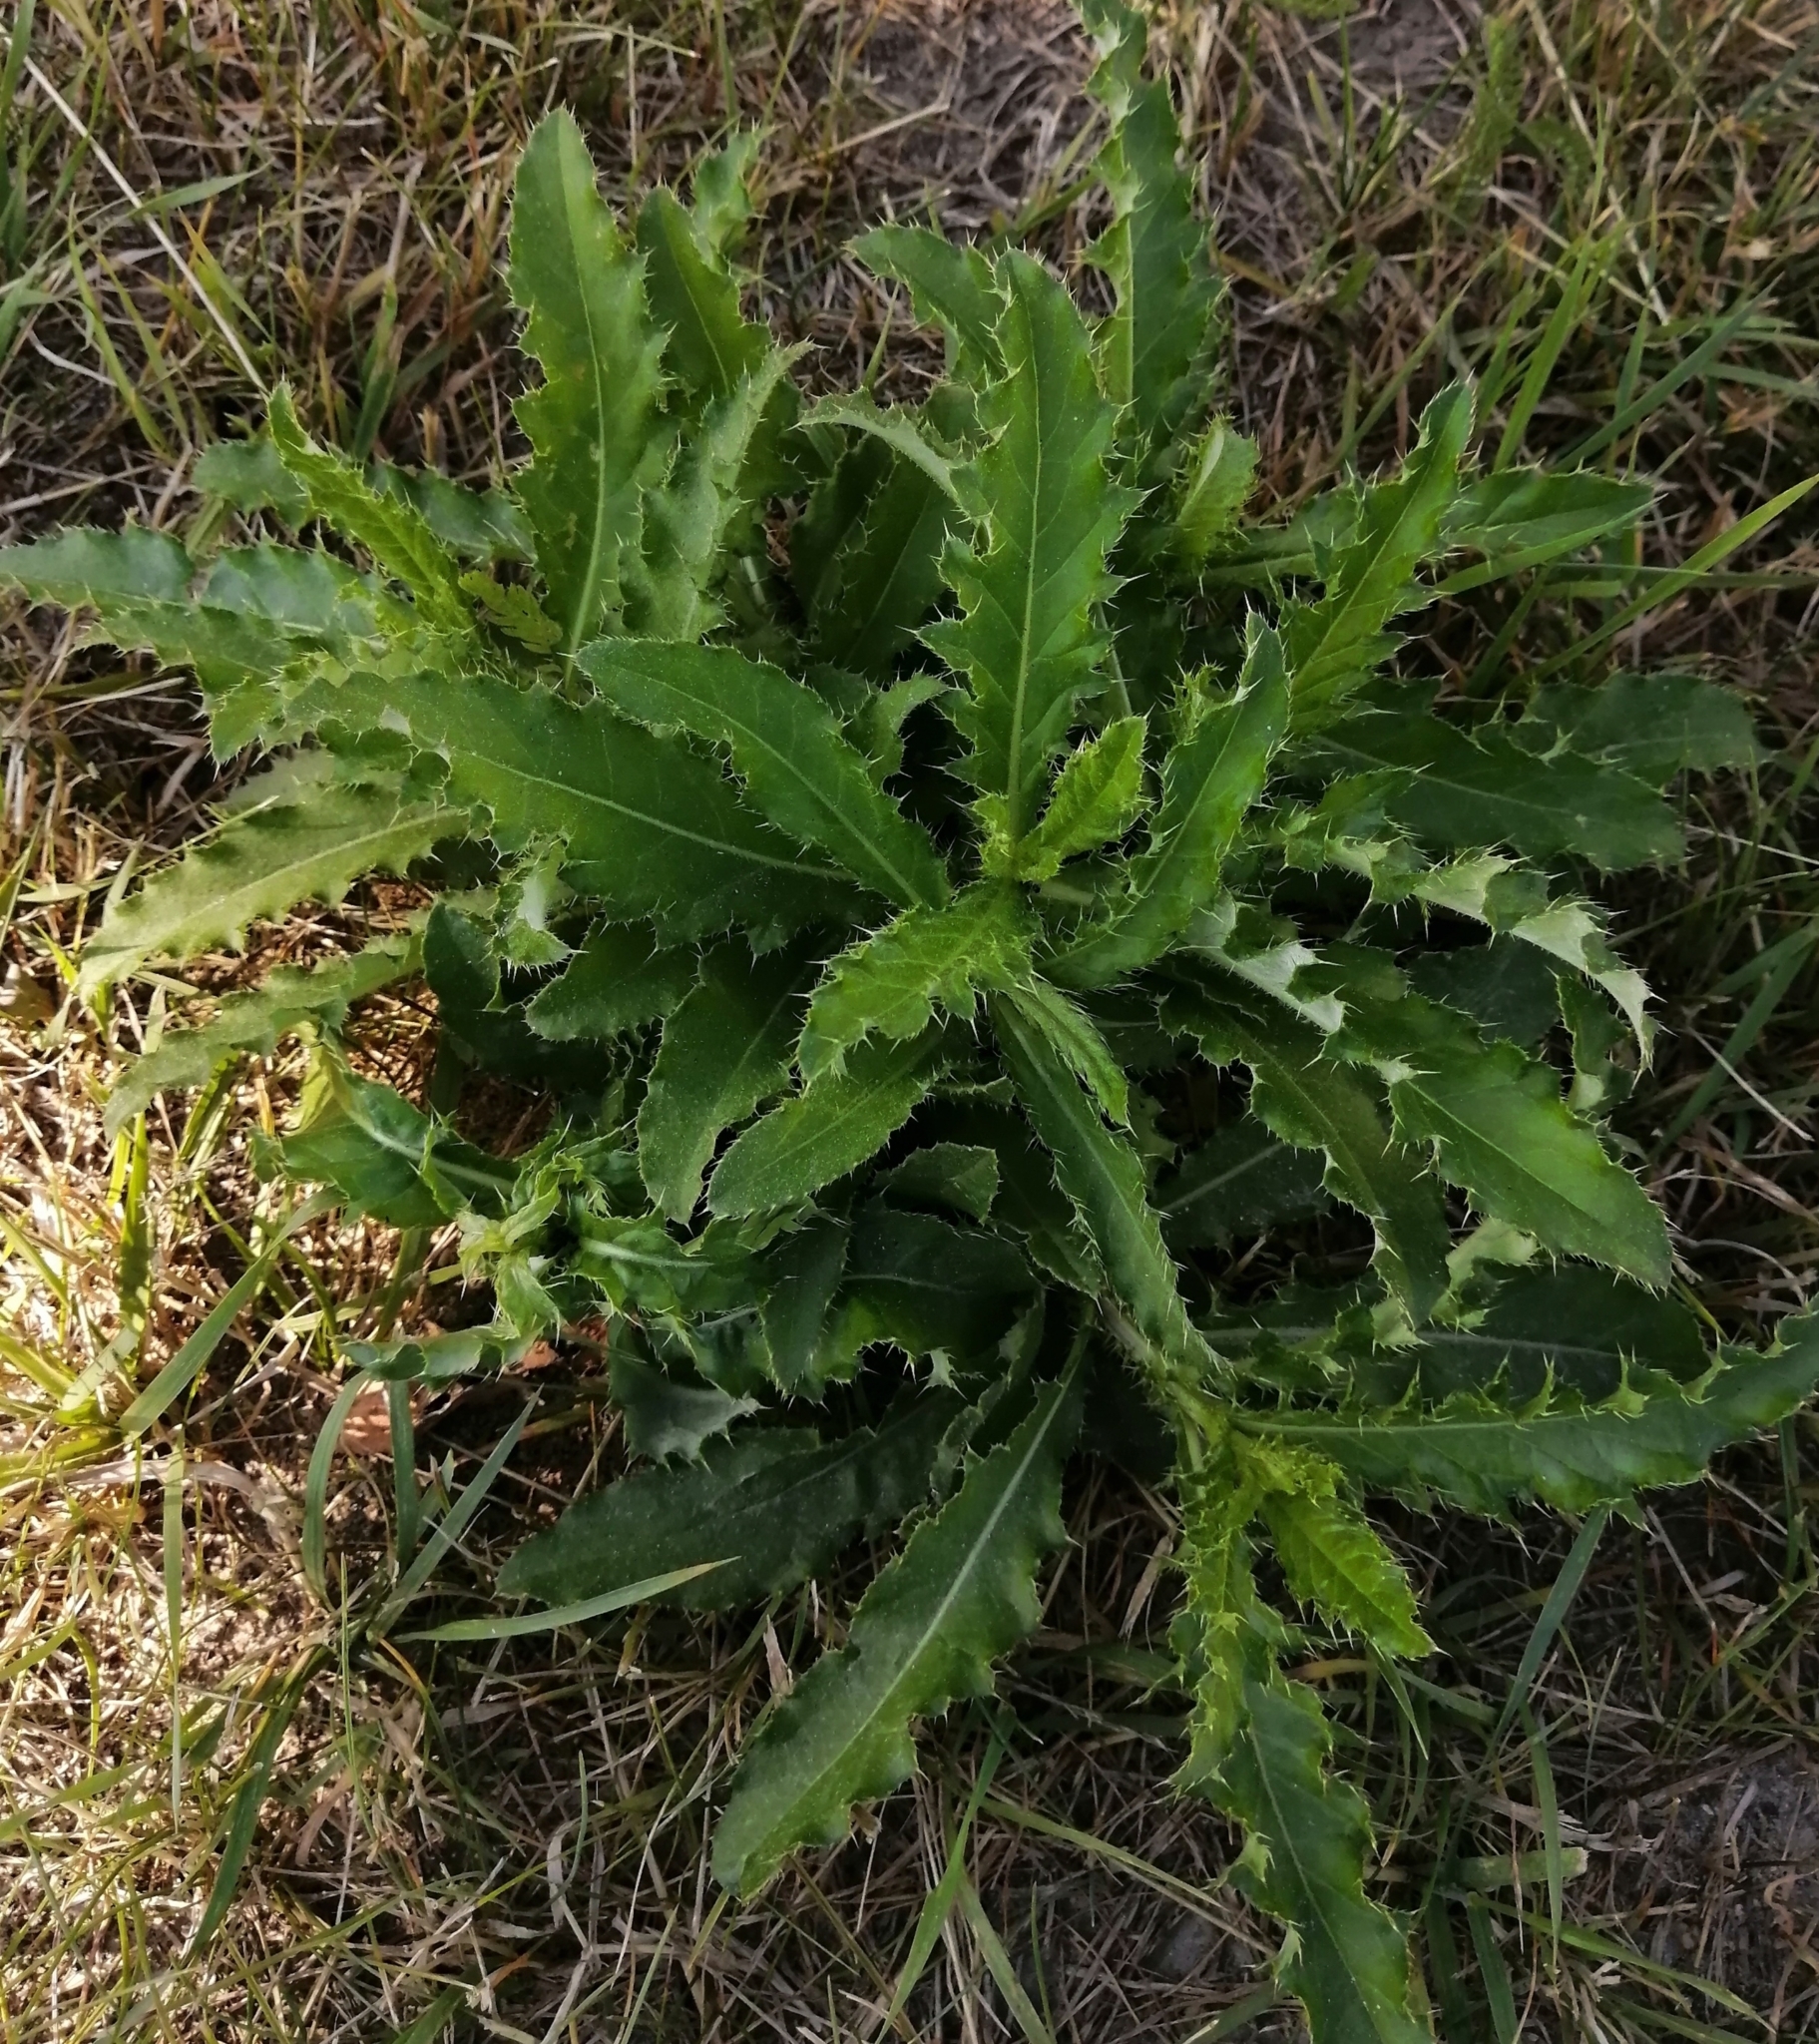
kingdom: Plantae
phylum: Tracheophyta
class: Magnoliopsida
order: Asterales
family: Asteraceae
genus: Cirsium
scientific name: Cirsium arvense
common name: Creeping thistle
